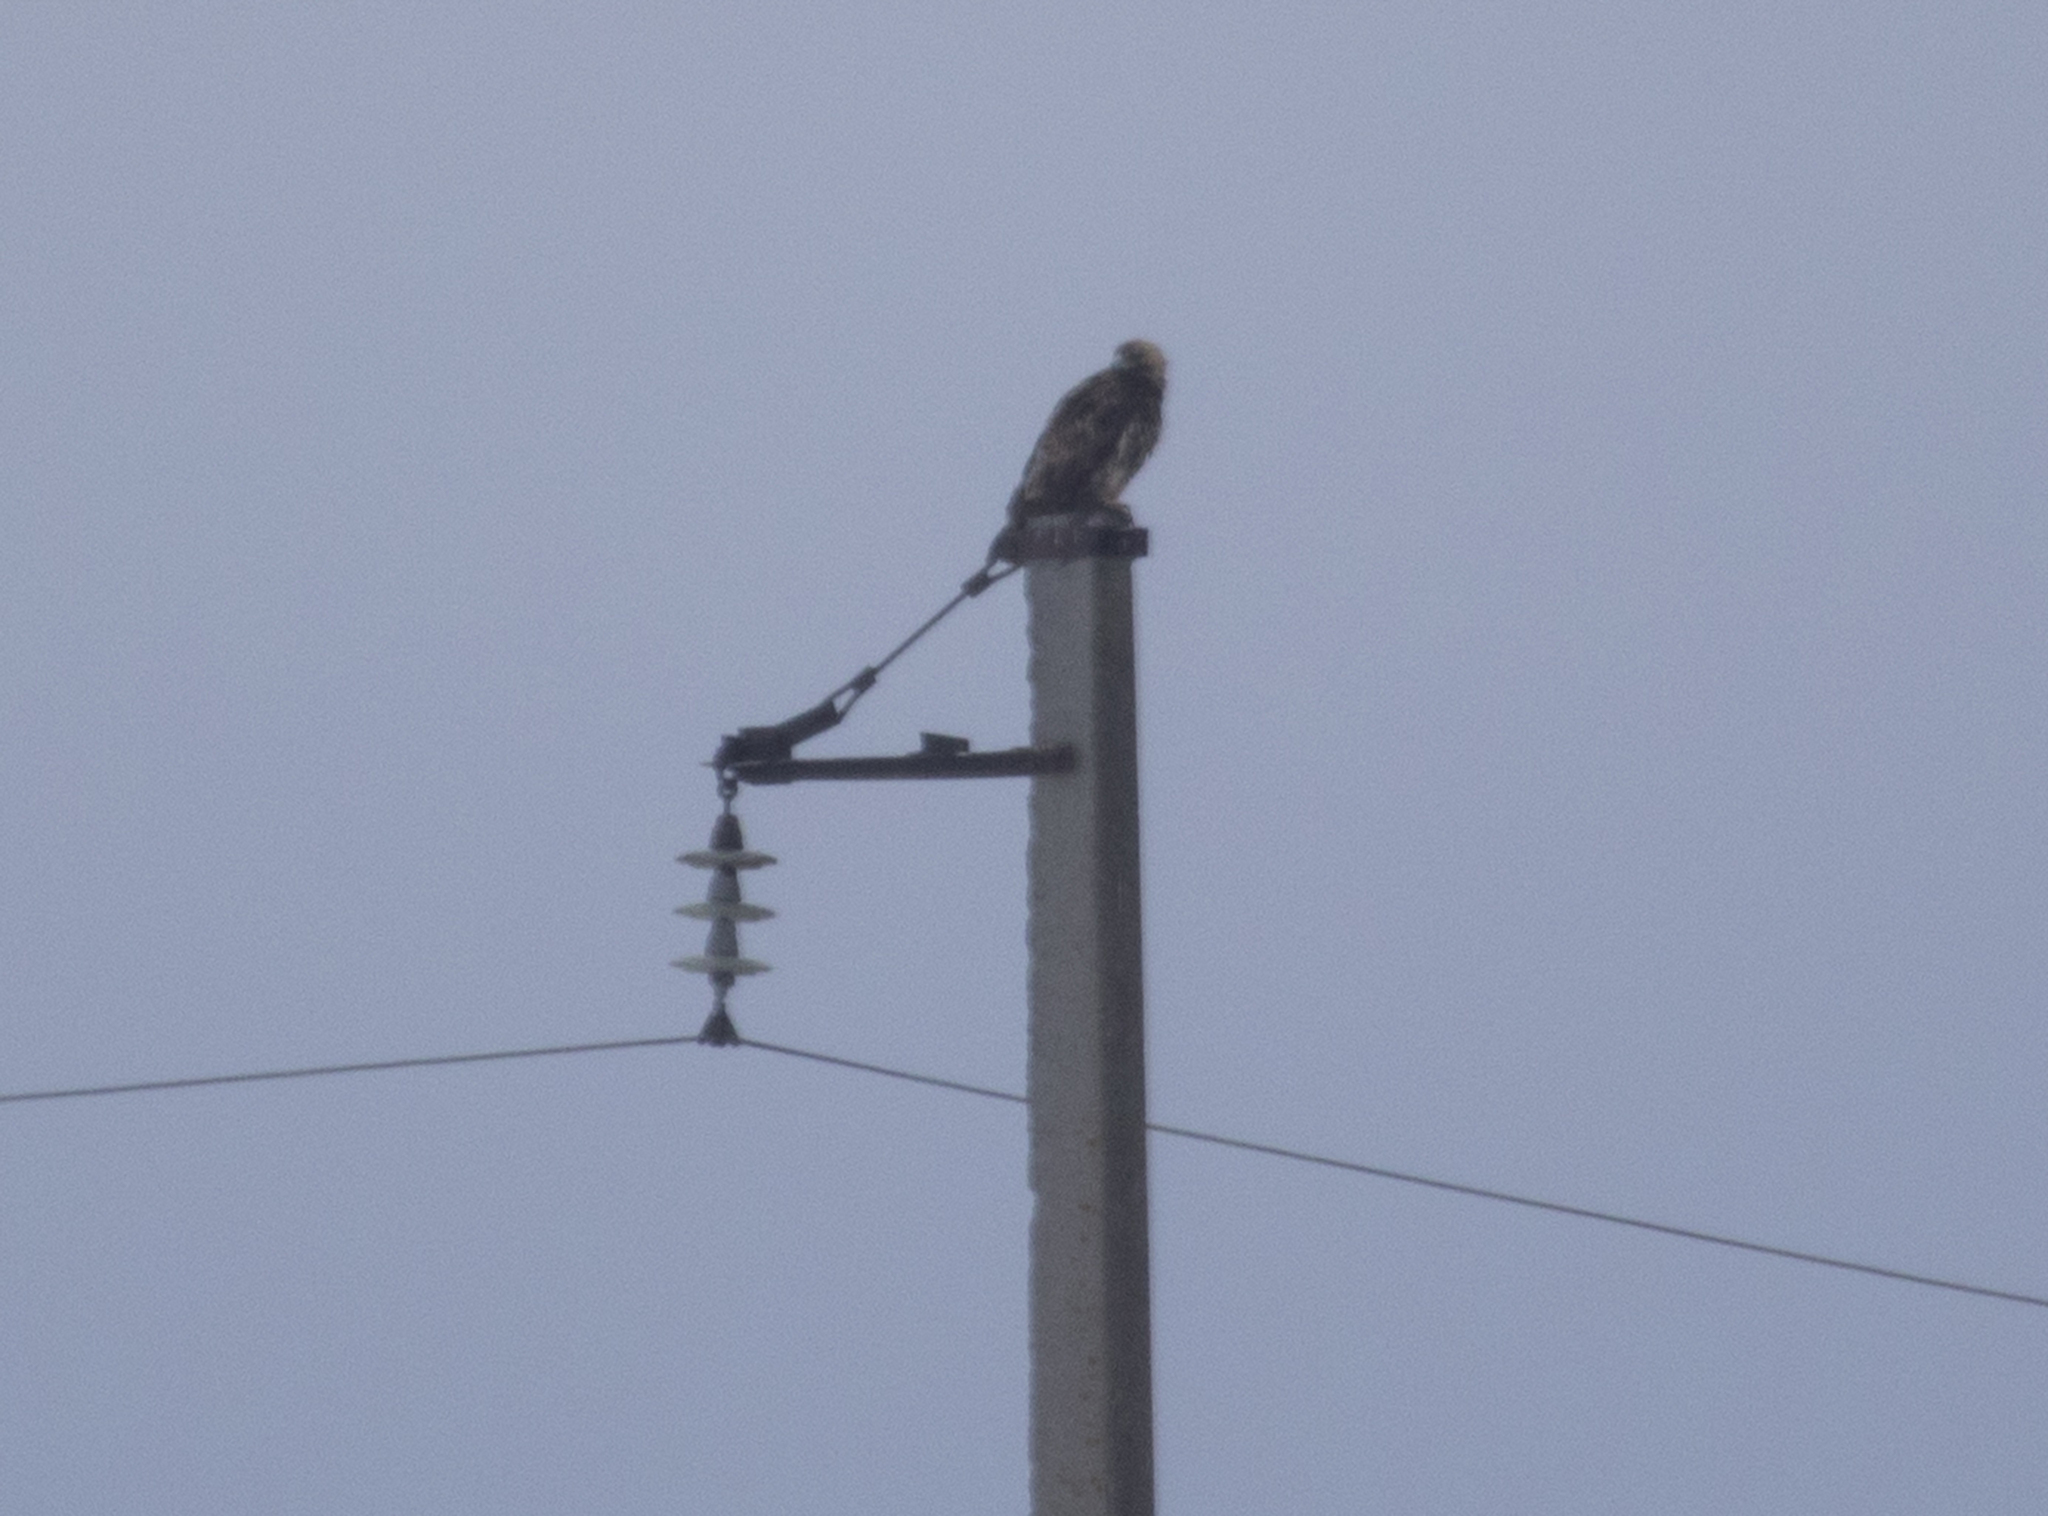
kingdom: Animalia
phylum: Chordata
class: Aves
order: Accipitriformes
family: Accipitridae
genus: Aquila
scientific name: Aquila heliaca
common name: Eastern imperial eagle
